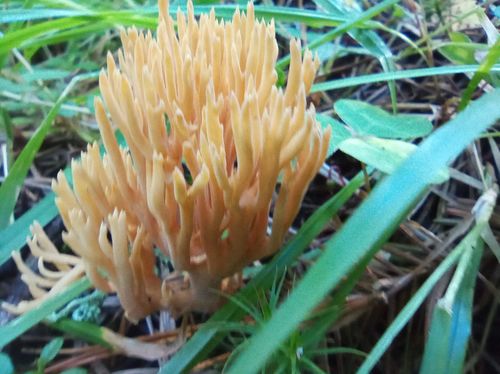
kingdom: Fungi
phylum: Basidiomycota
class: Agaricomycetes
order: Gomphales
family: Gomphaceae
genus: Ramaria
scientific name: Ramaria tsugina
